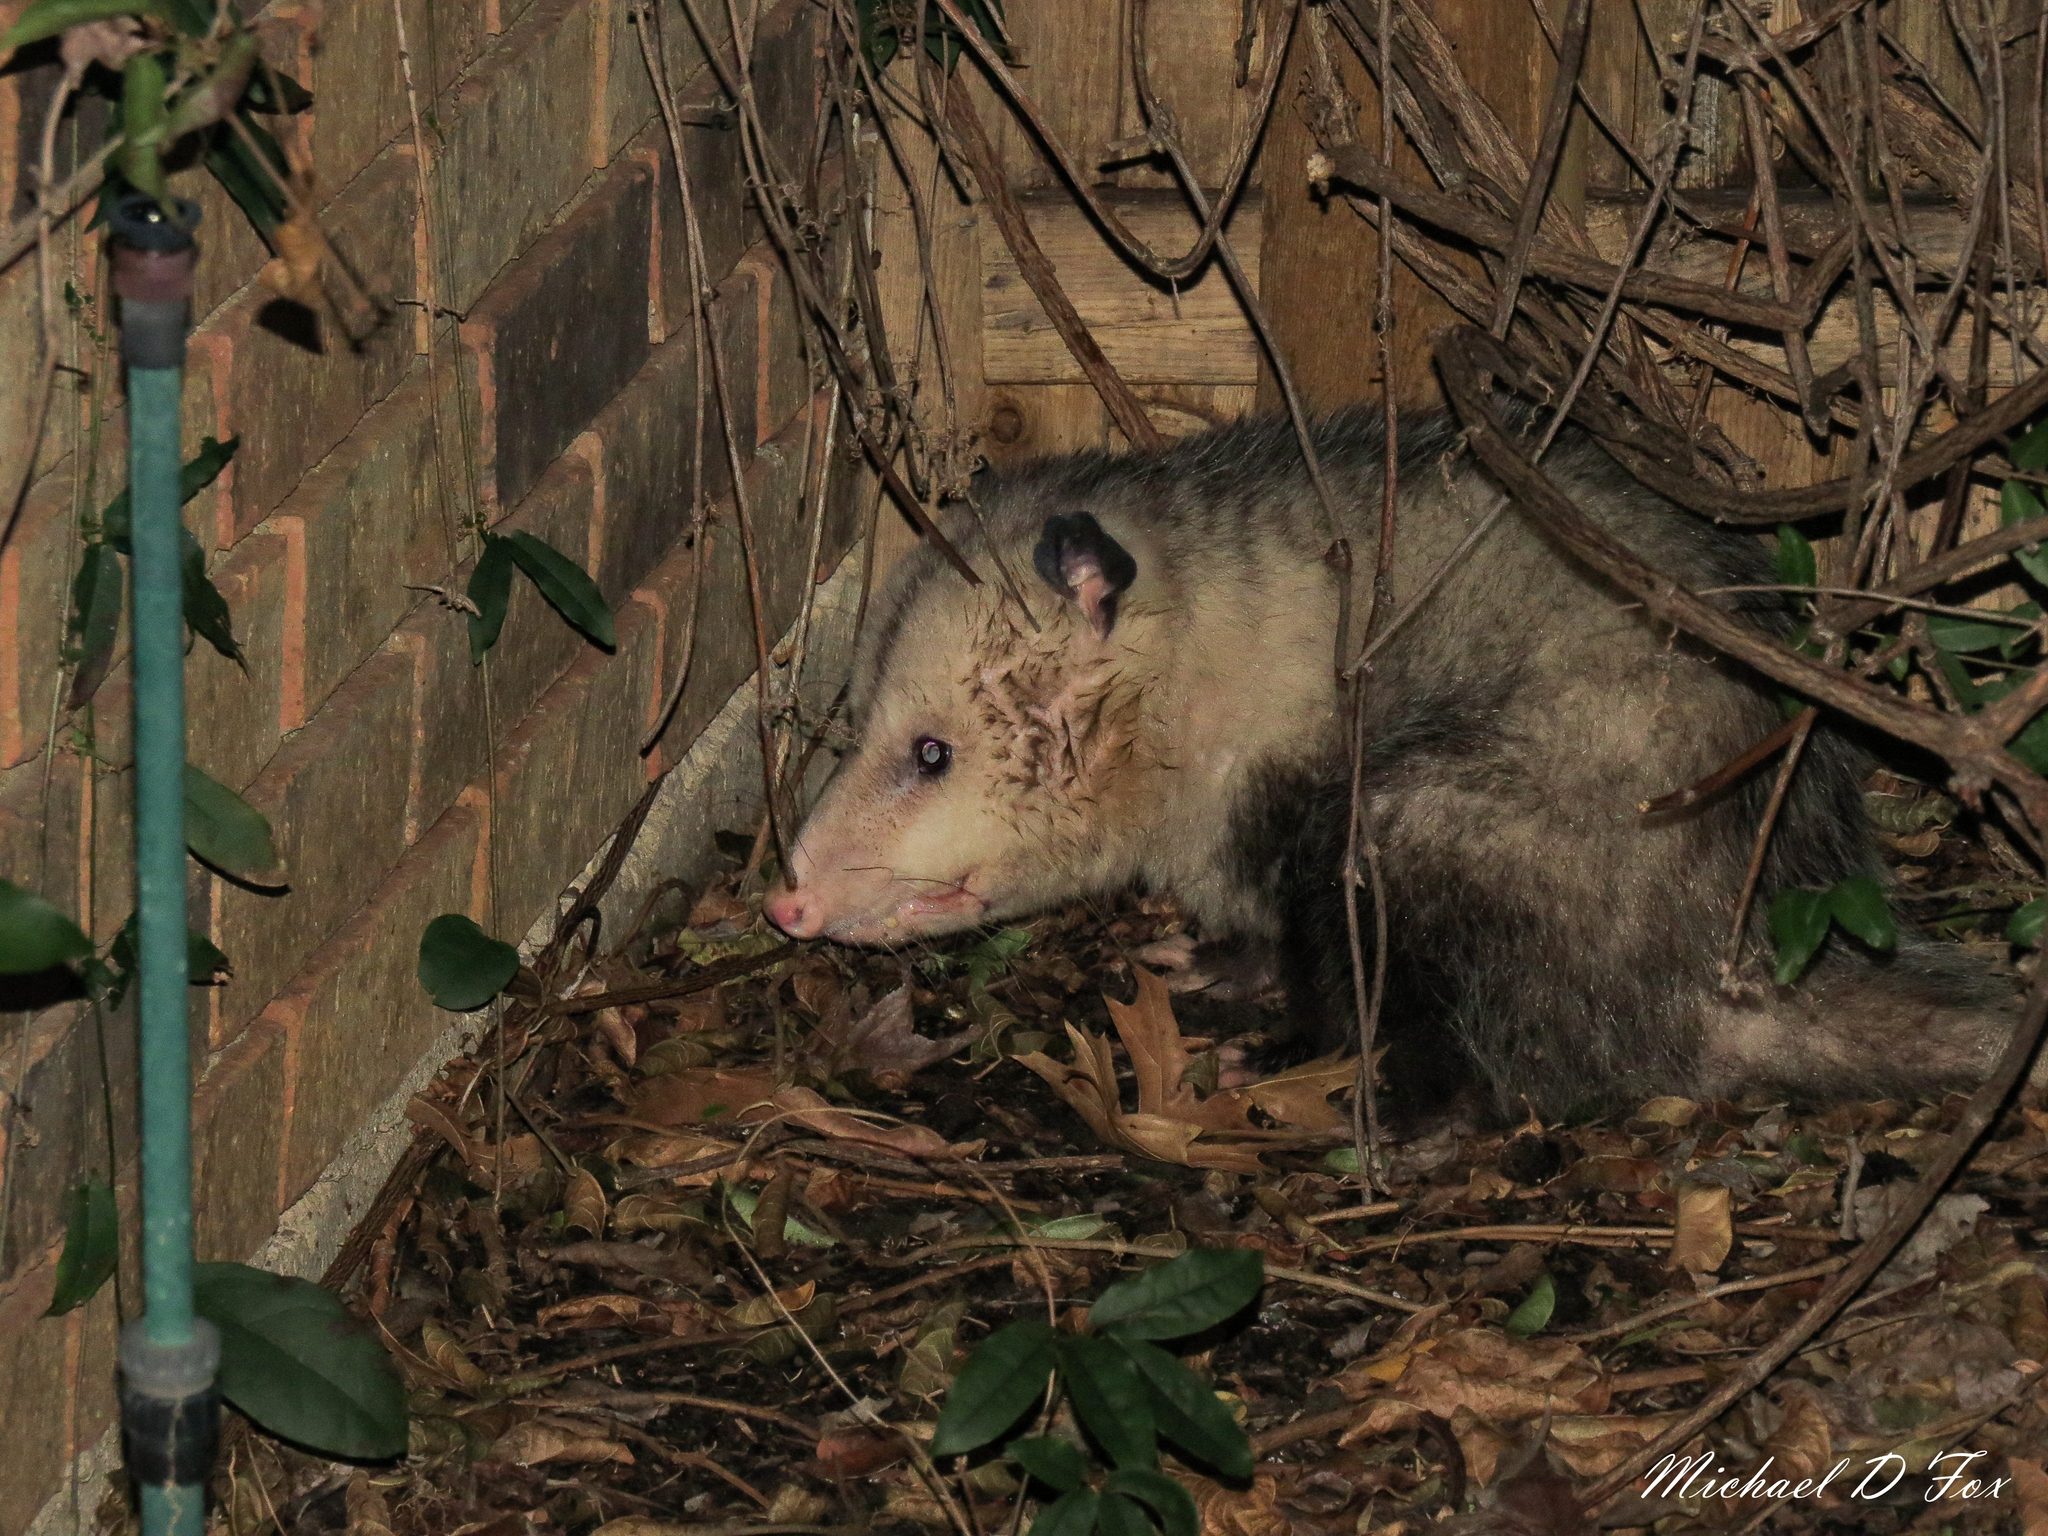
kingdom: Animalia
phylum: Chordata
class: Mammalia
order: Didelphimorphia
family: Didelphidae
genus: Didelphis
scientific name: Didelphis virginiana
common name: Virginia opossum
